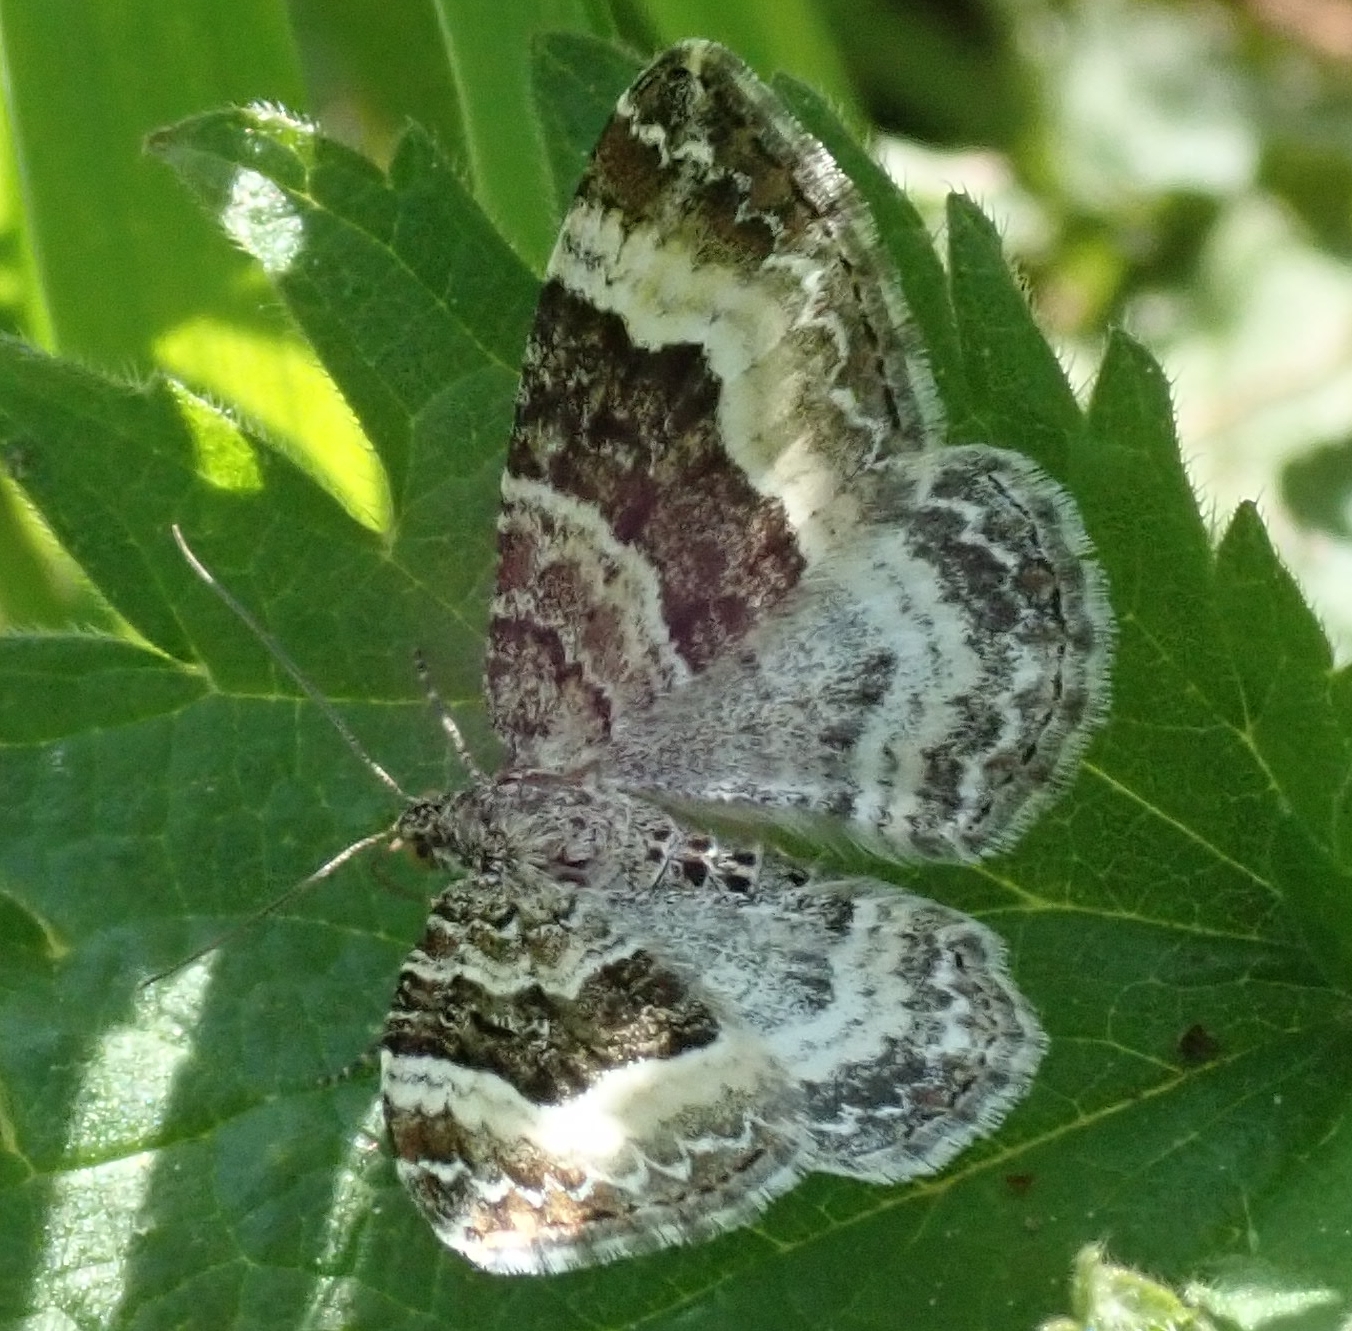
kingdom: Animalia
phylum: Arthropoda
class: Insecta
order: Lepidoptera
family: Geometridae
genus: Epirrhoe
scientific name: Epirrhoe alternata
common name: Common carpet
